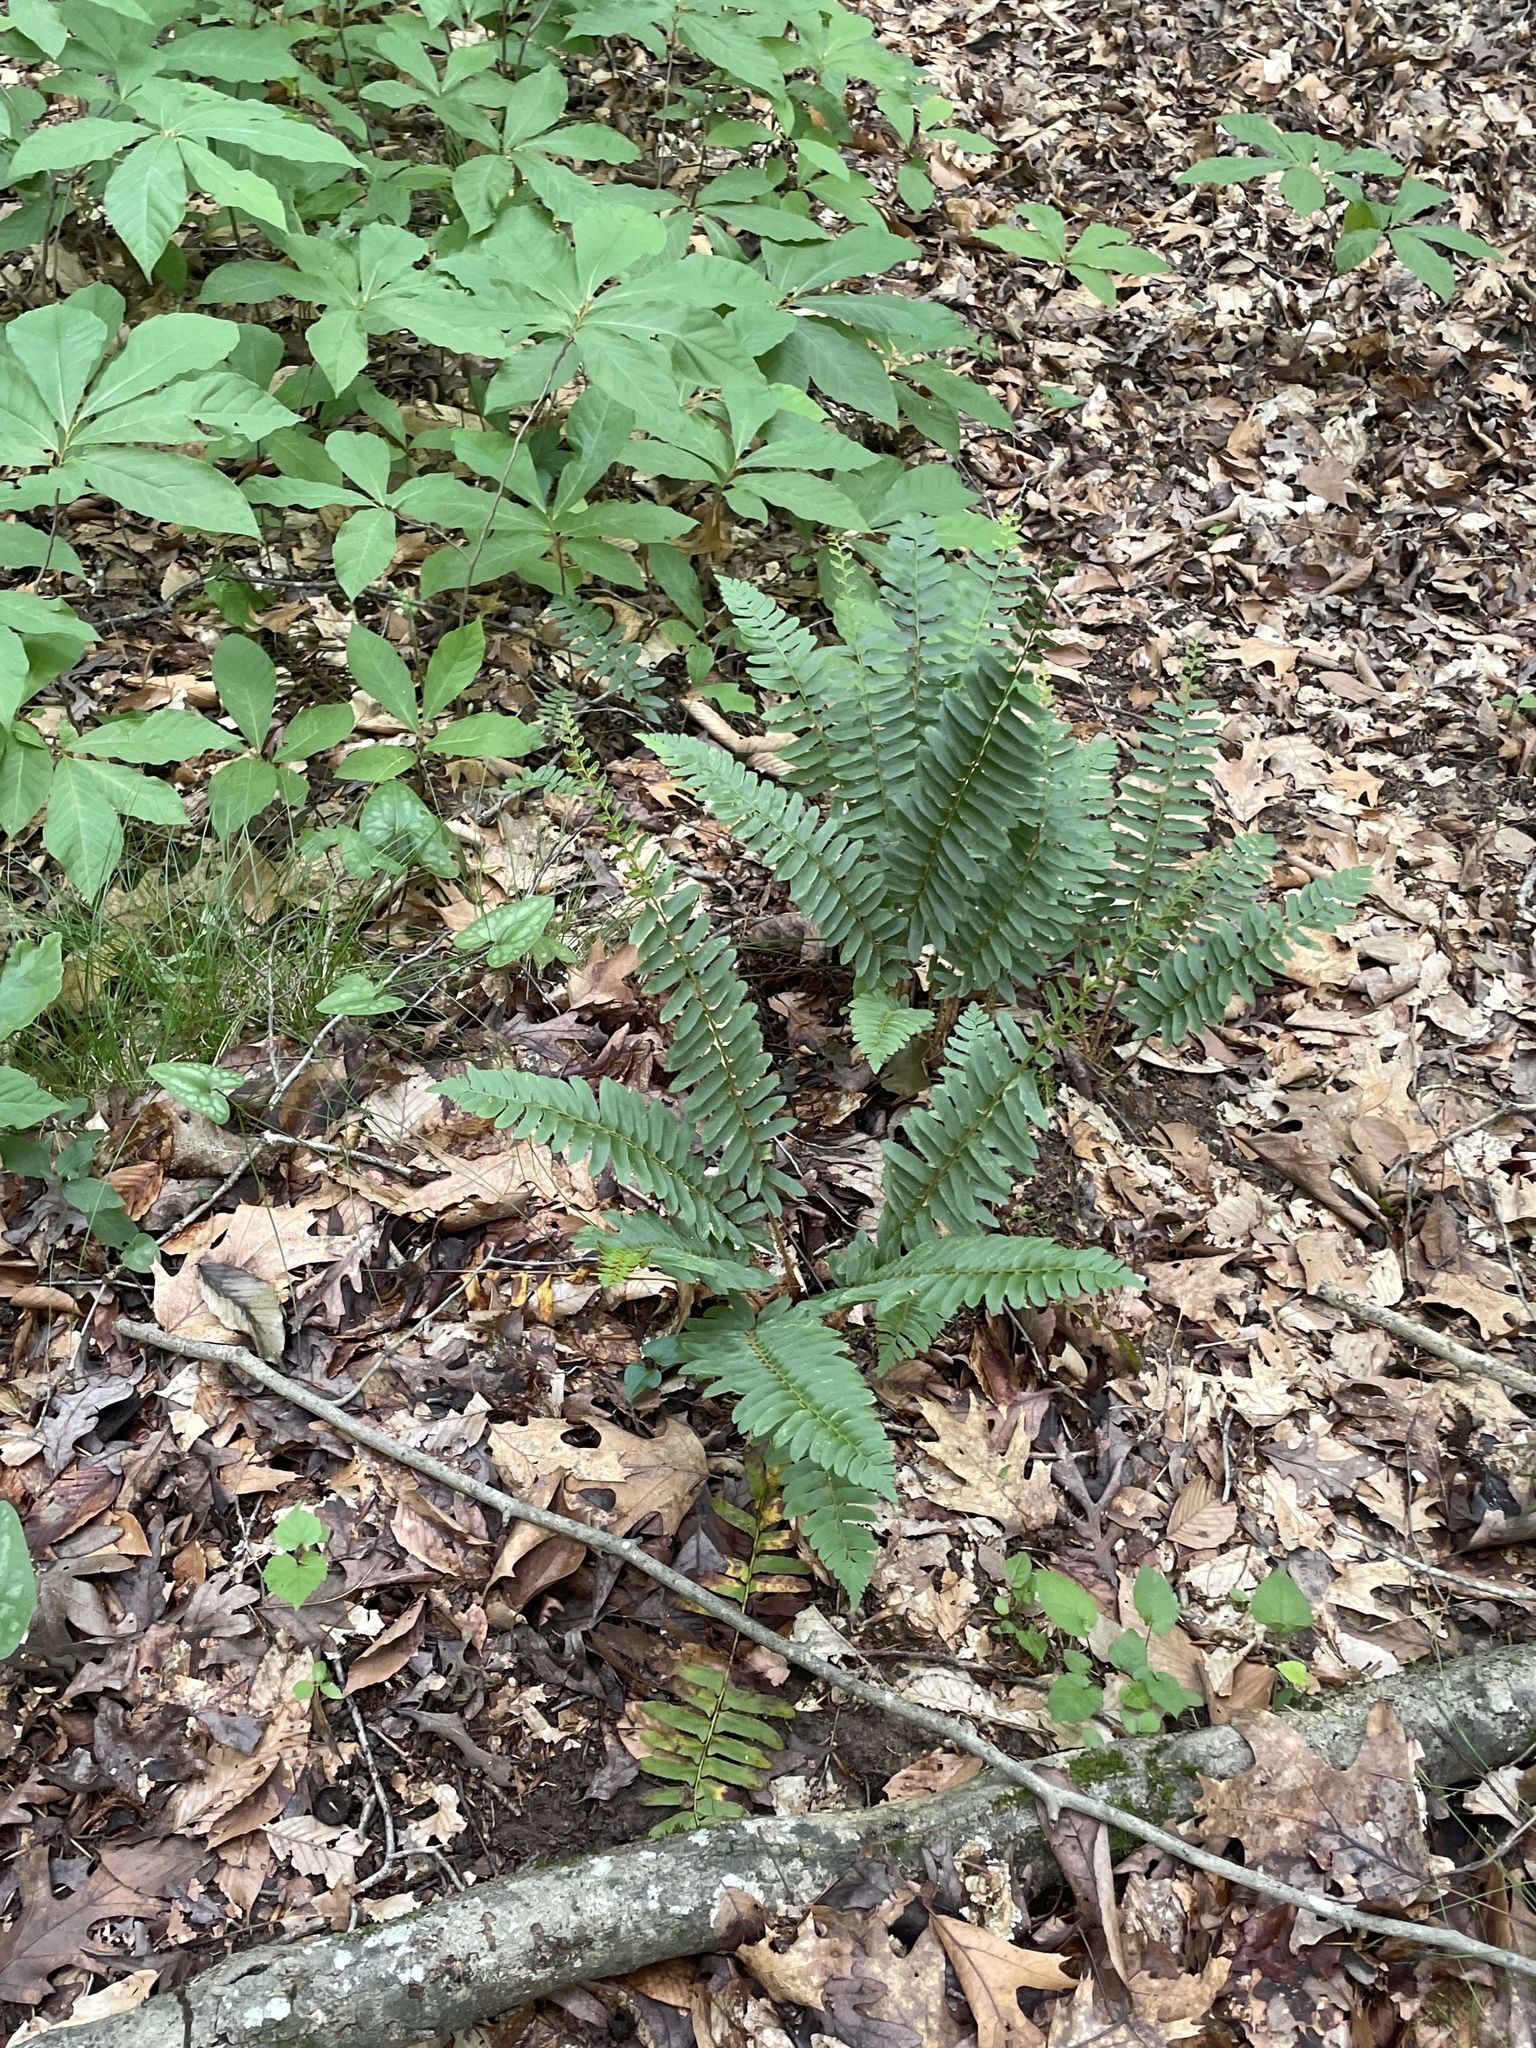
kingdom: Plantae
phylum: Tracheophyta
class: Polypodiopsida
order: Polypodiales
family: Dryopteridaceae
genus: Polystichum
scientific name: Polystichum acrostichoides
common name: Christmas fern
